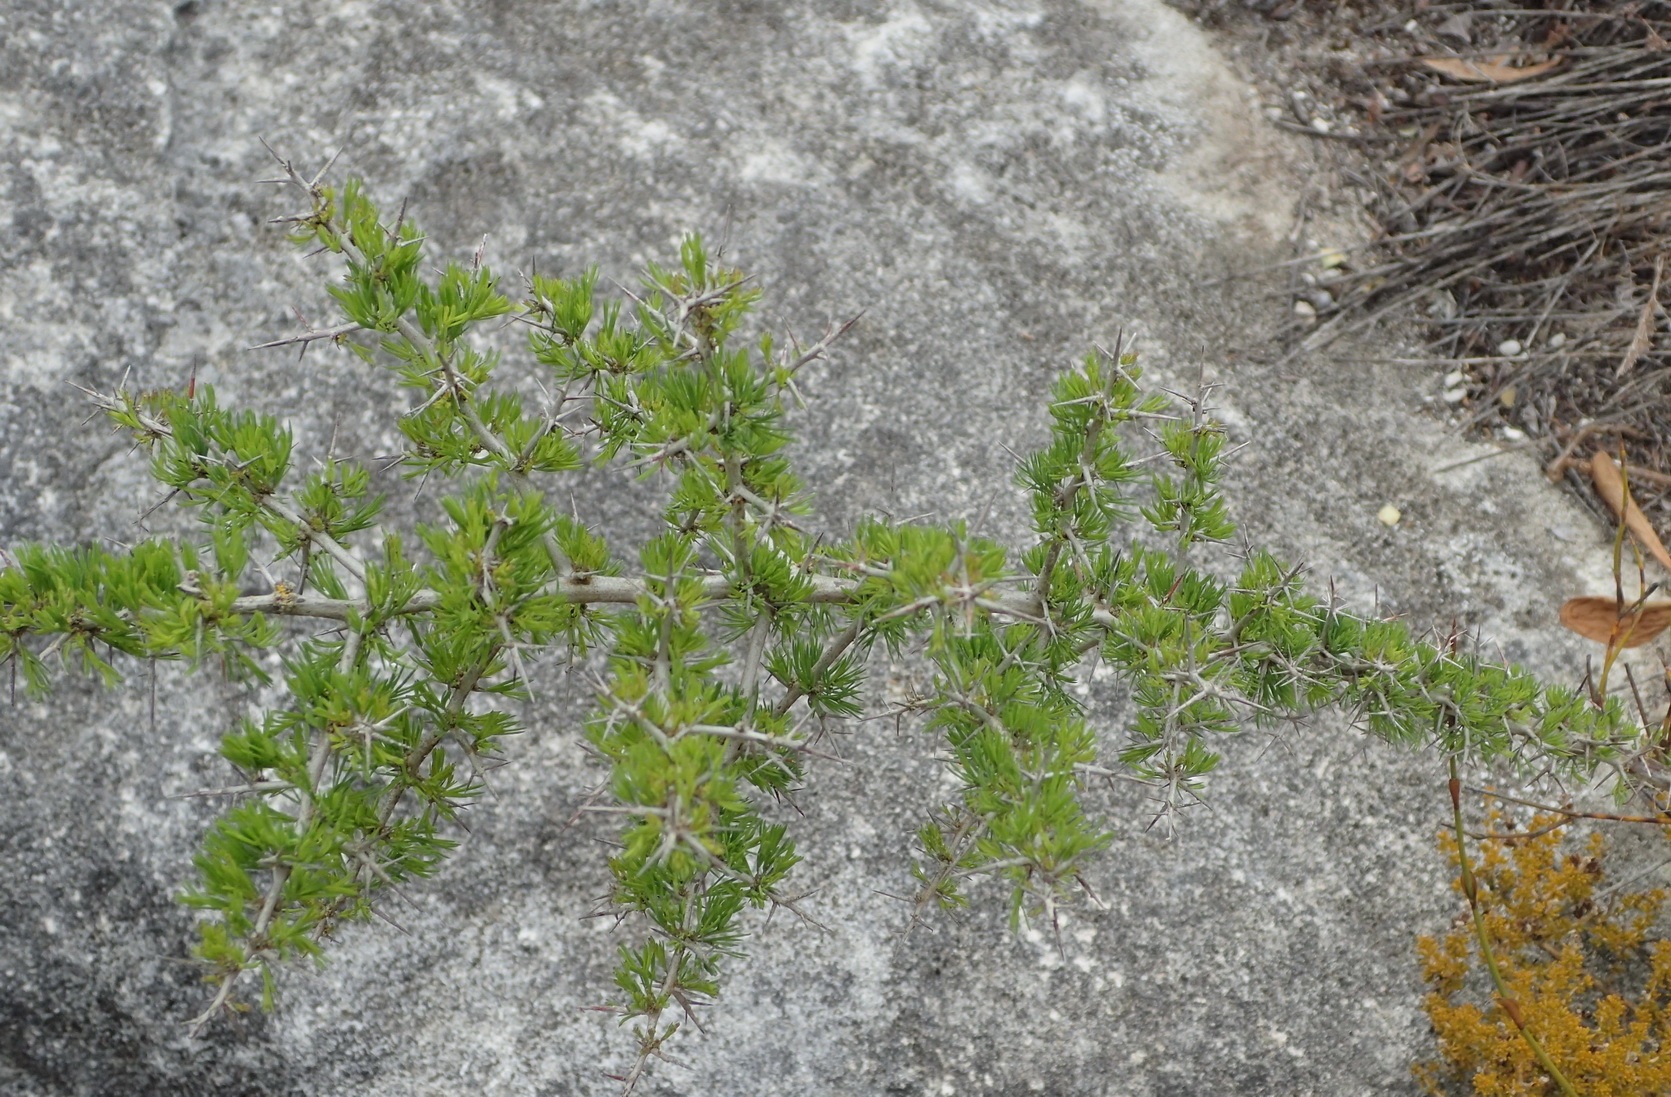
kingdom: Plantae
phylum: Tracheophyta
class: Liliopsida
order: Asparagales
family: Asparagaceae
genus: Asparagus
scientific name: Asparagus mariae
